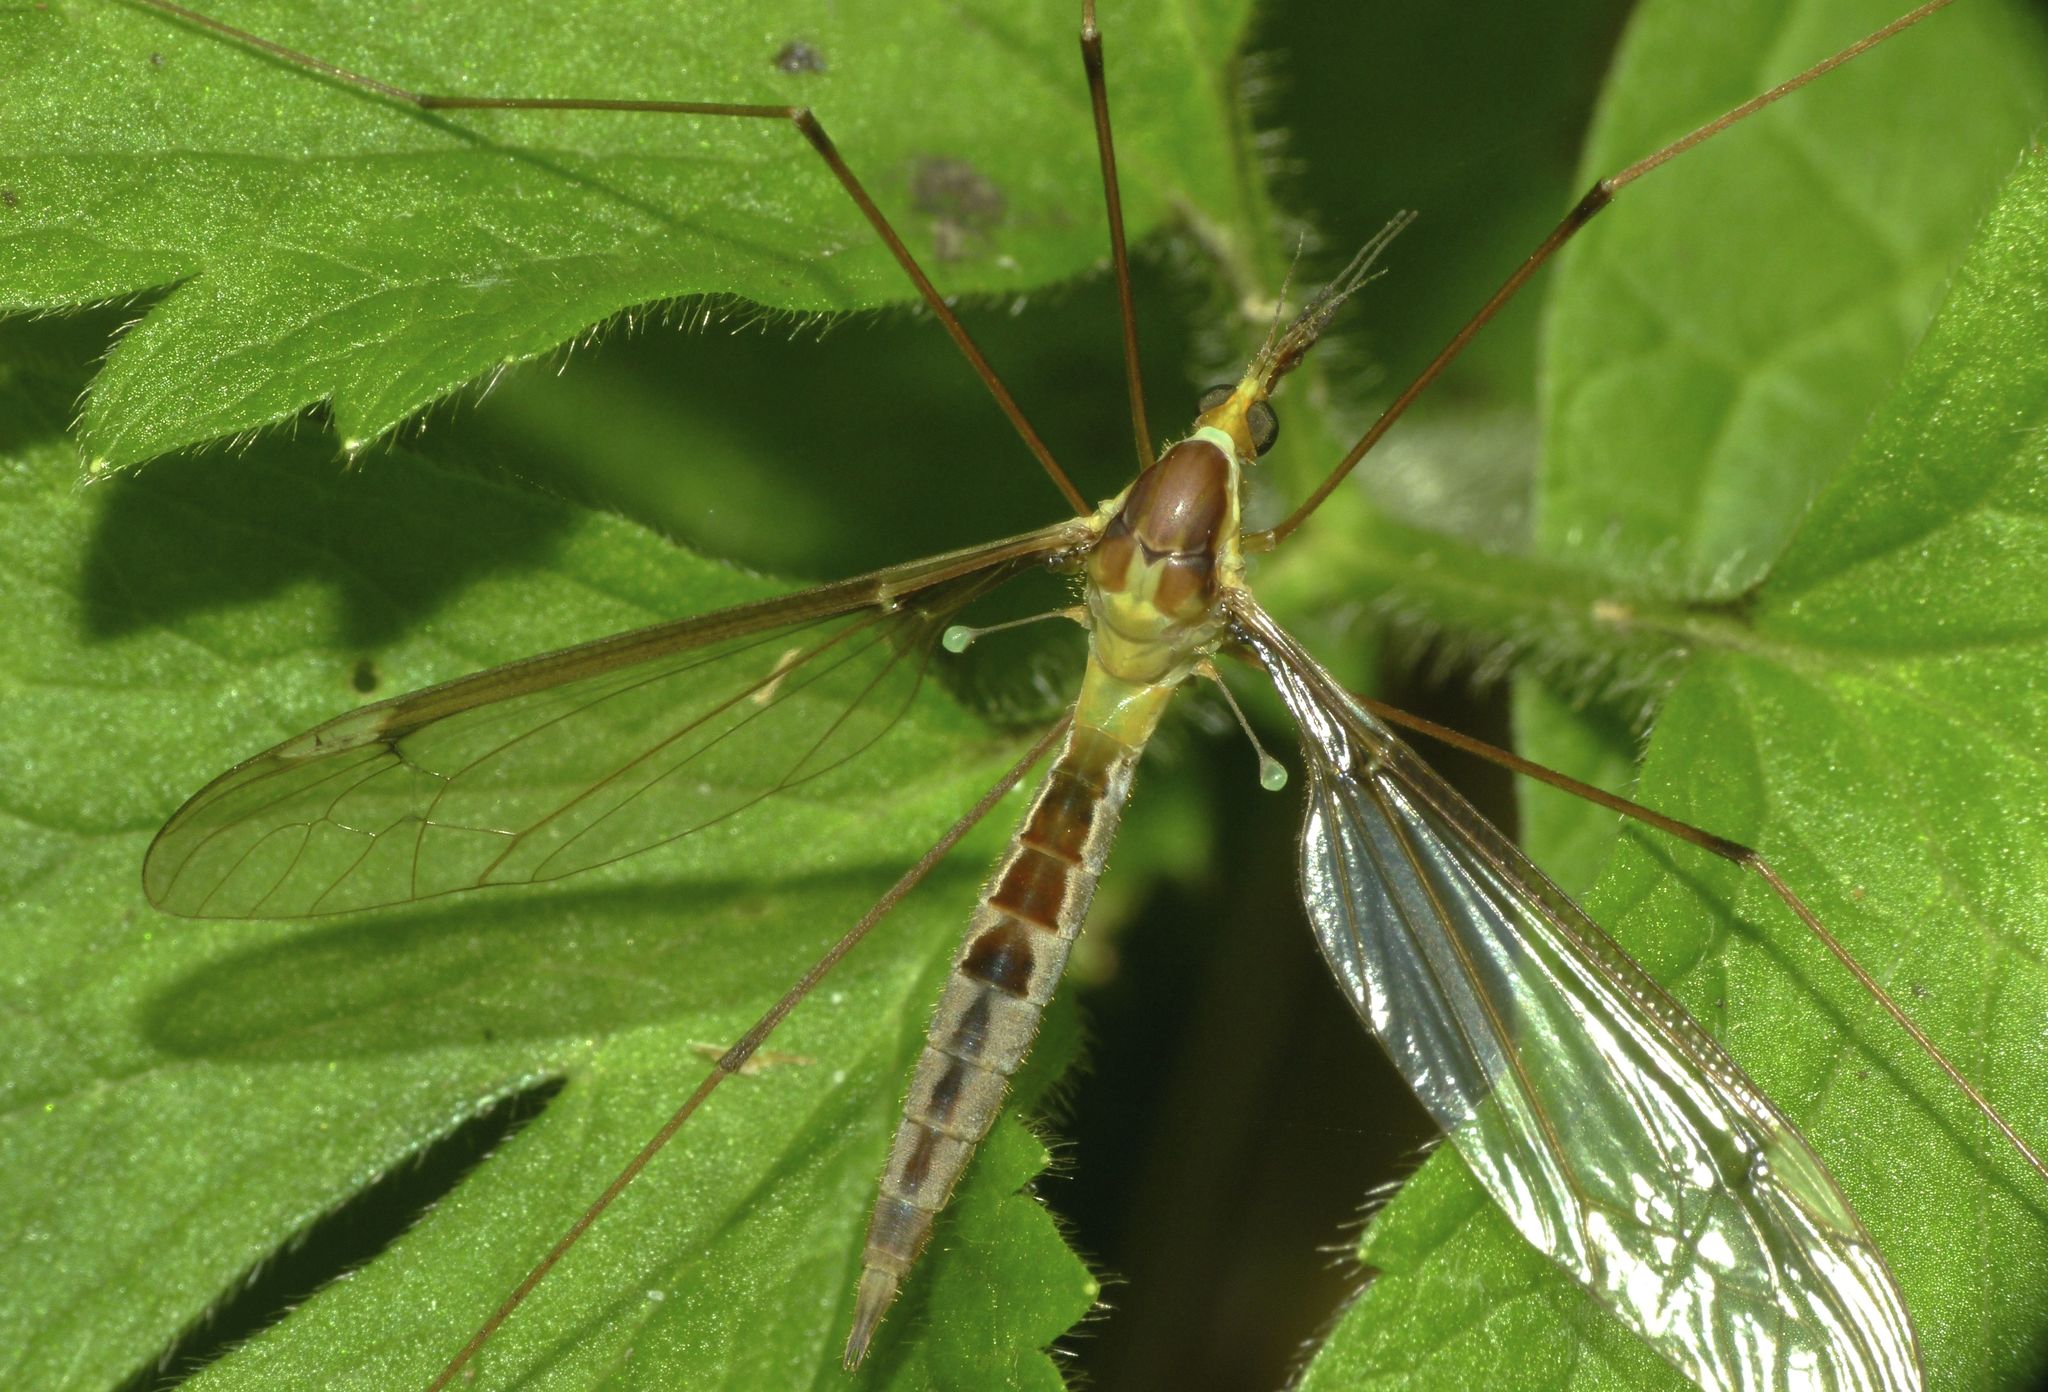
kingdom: Animalia
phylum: Arthropoda
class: Insecta
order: Diptera
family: Tipulidae
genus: Leptotarsus
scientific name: Leptotarsus albistigma
